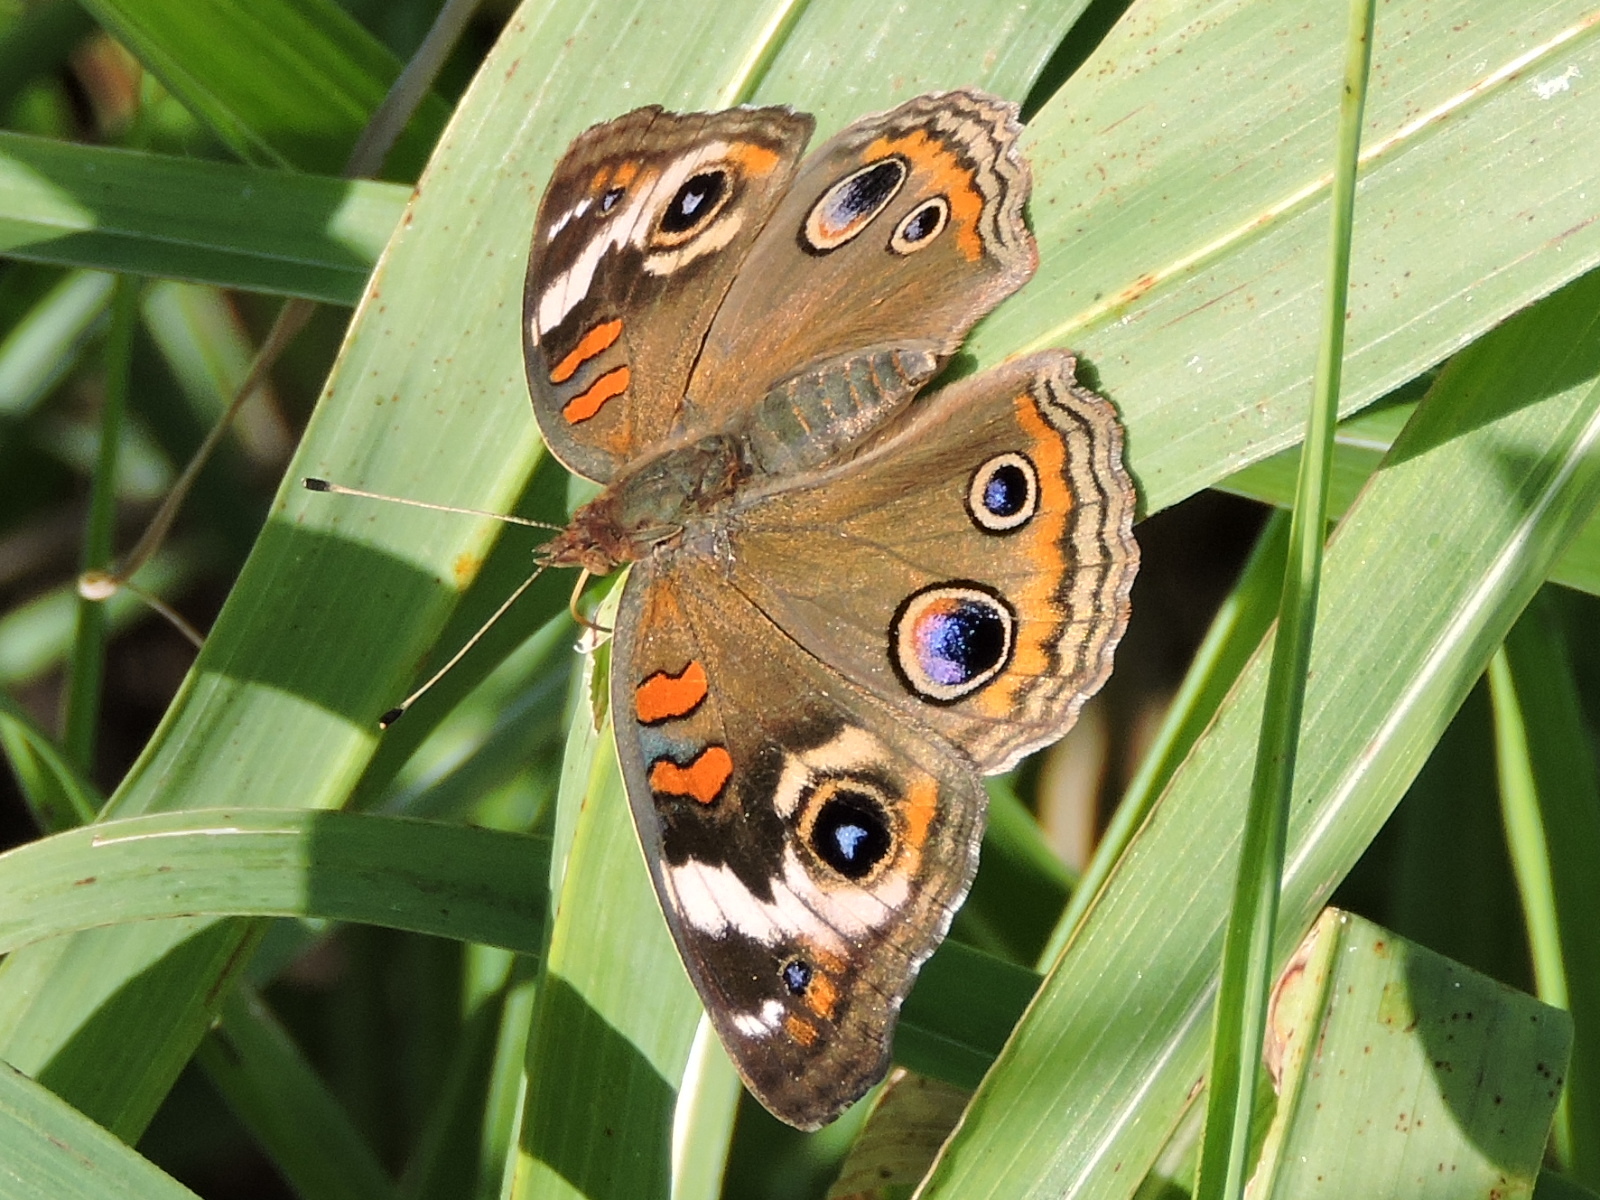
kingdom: Animalia
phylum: Arthropoda
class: Insecta
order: Lepidoptera
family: Nymphalidae
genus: Junonia
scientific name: Junonia coenia
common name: Common buckeye
